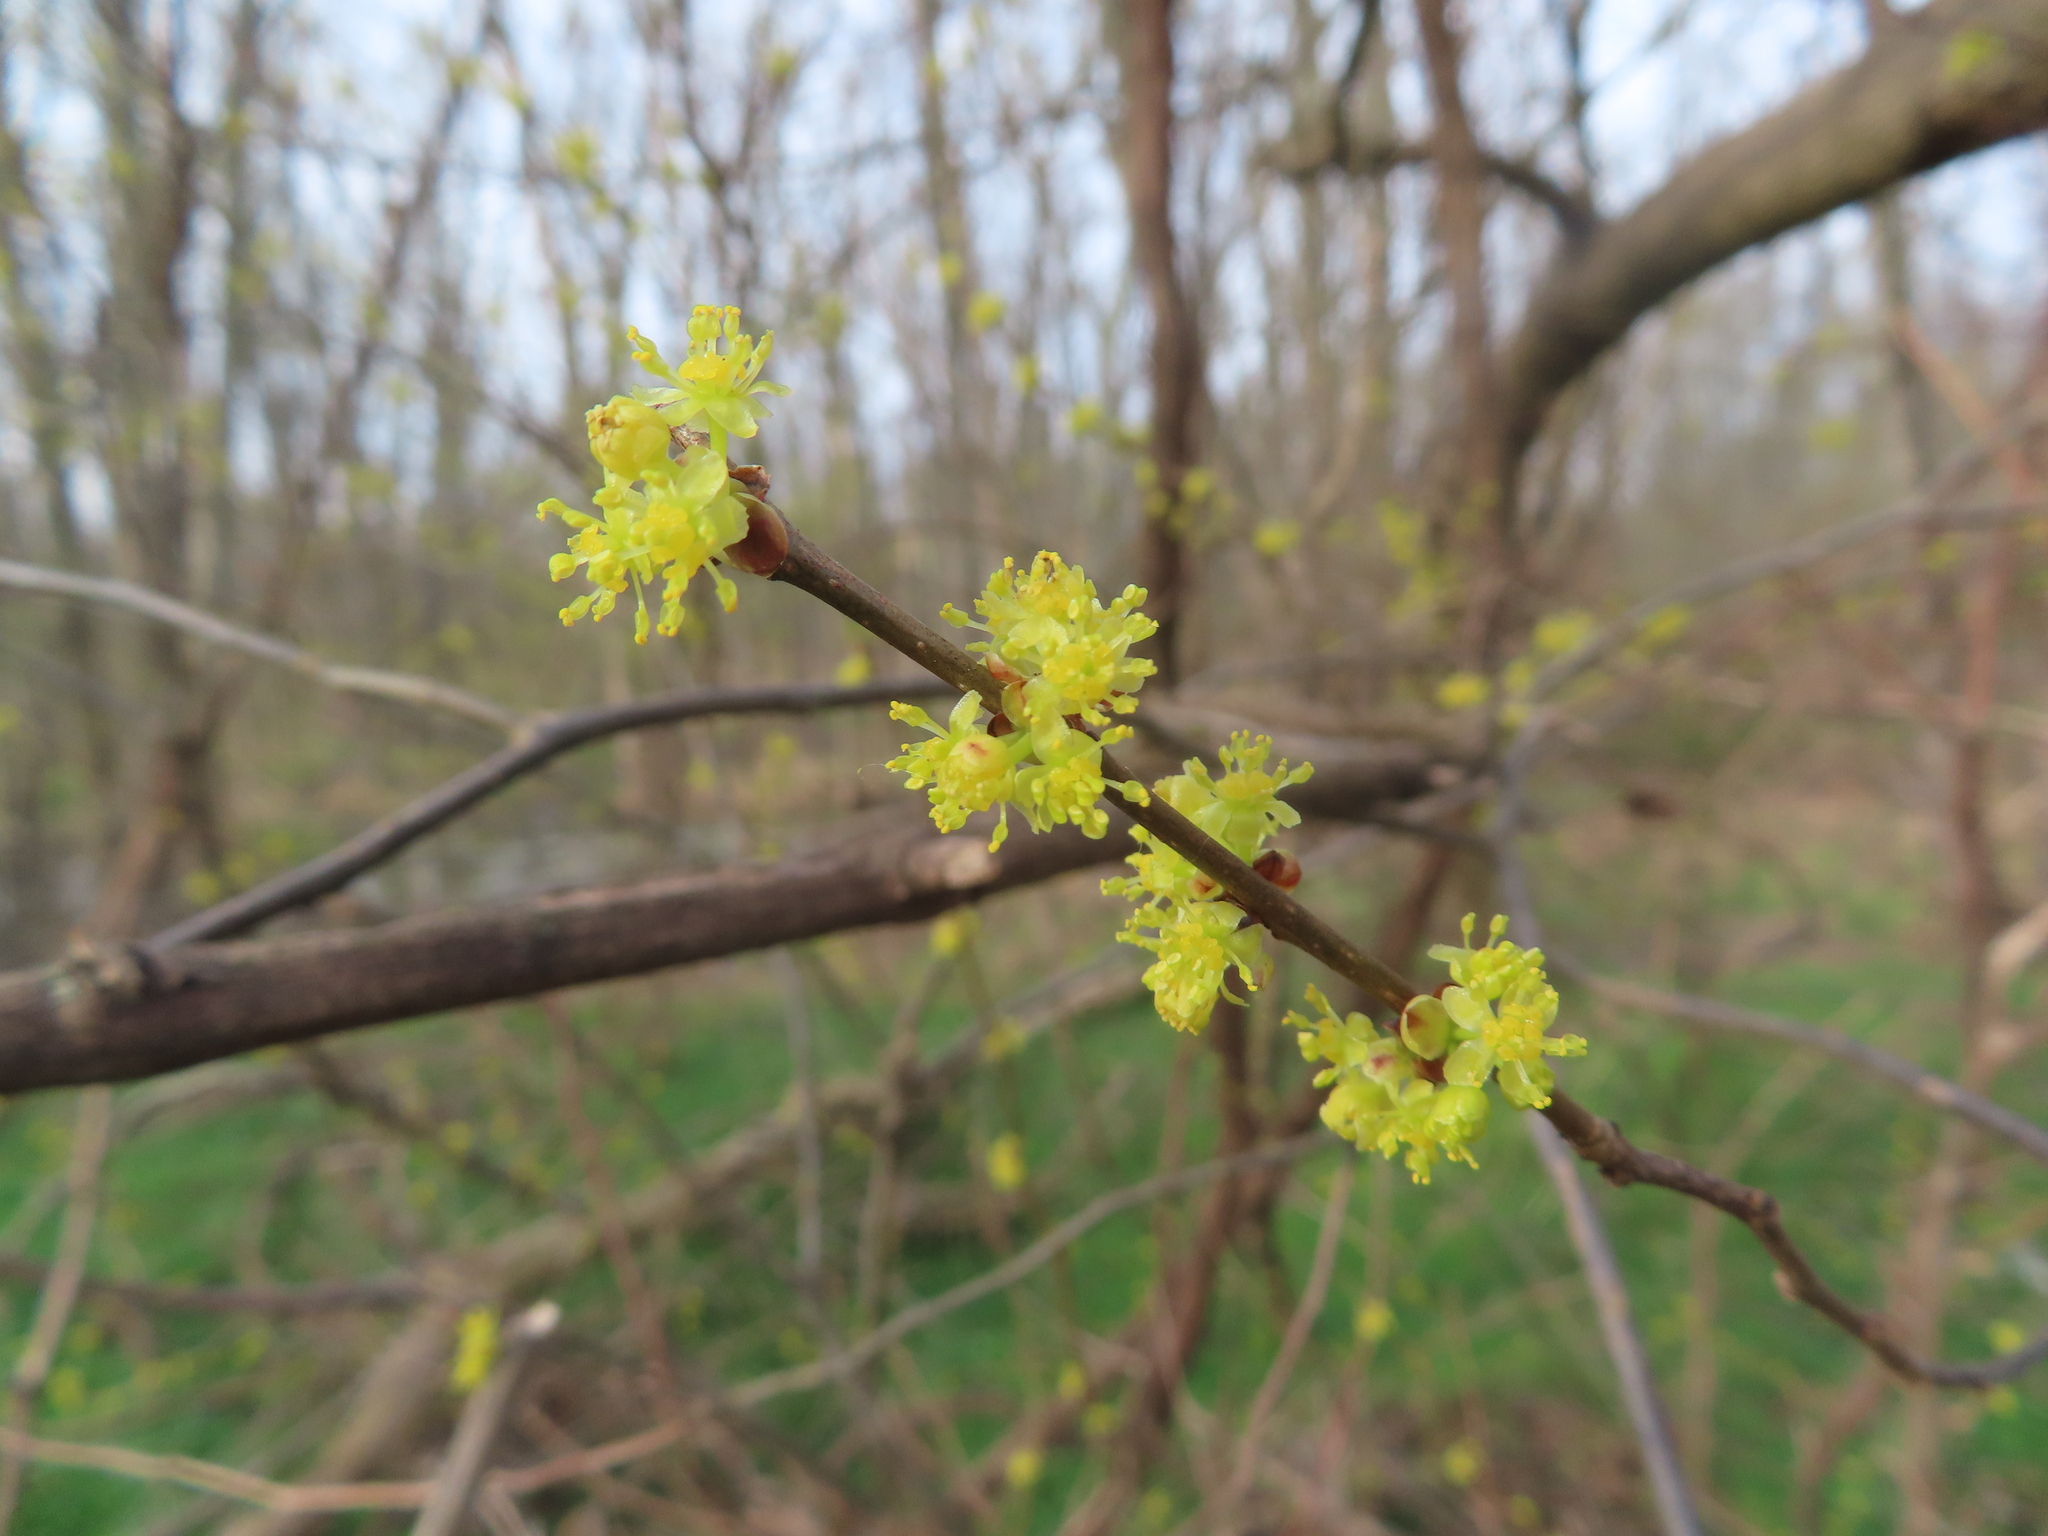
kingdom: Plantae
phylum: Tracheophyta
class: Magnoliopsida
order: Laurales
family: Lauraceae
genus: Lindera
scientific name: Lindera benzoin
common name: Spicebush
